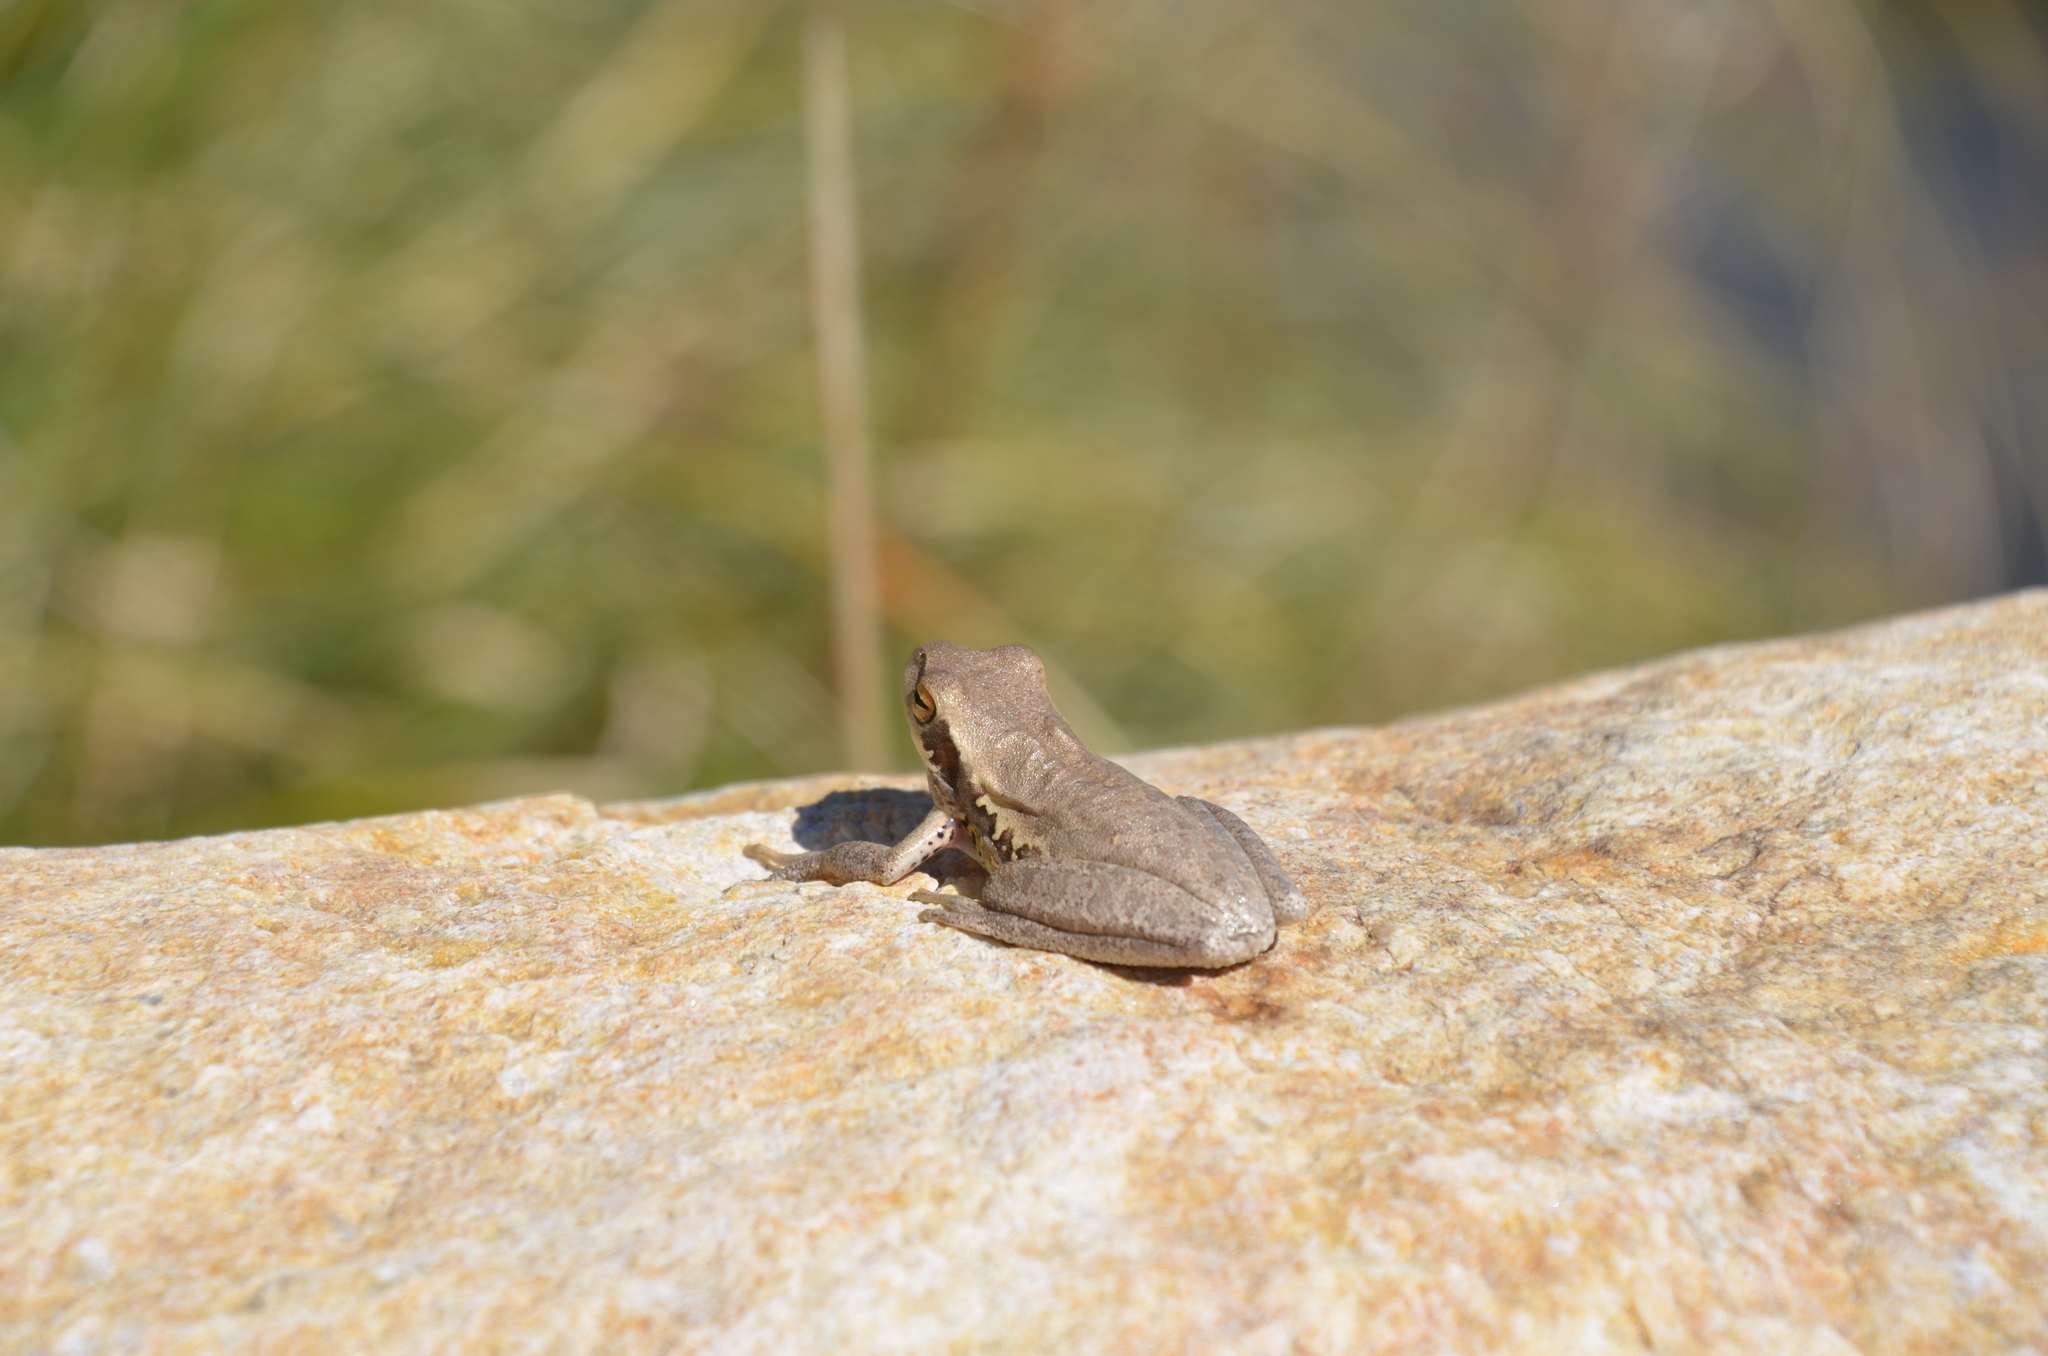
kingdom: Animalia
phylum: Chordata
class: Amphibia
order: Anura
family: Hylidae
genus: Boana
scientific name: Boana pulchella
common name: Montevideo treefrog
